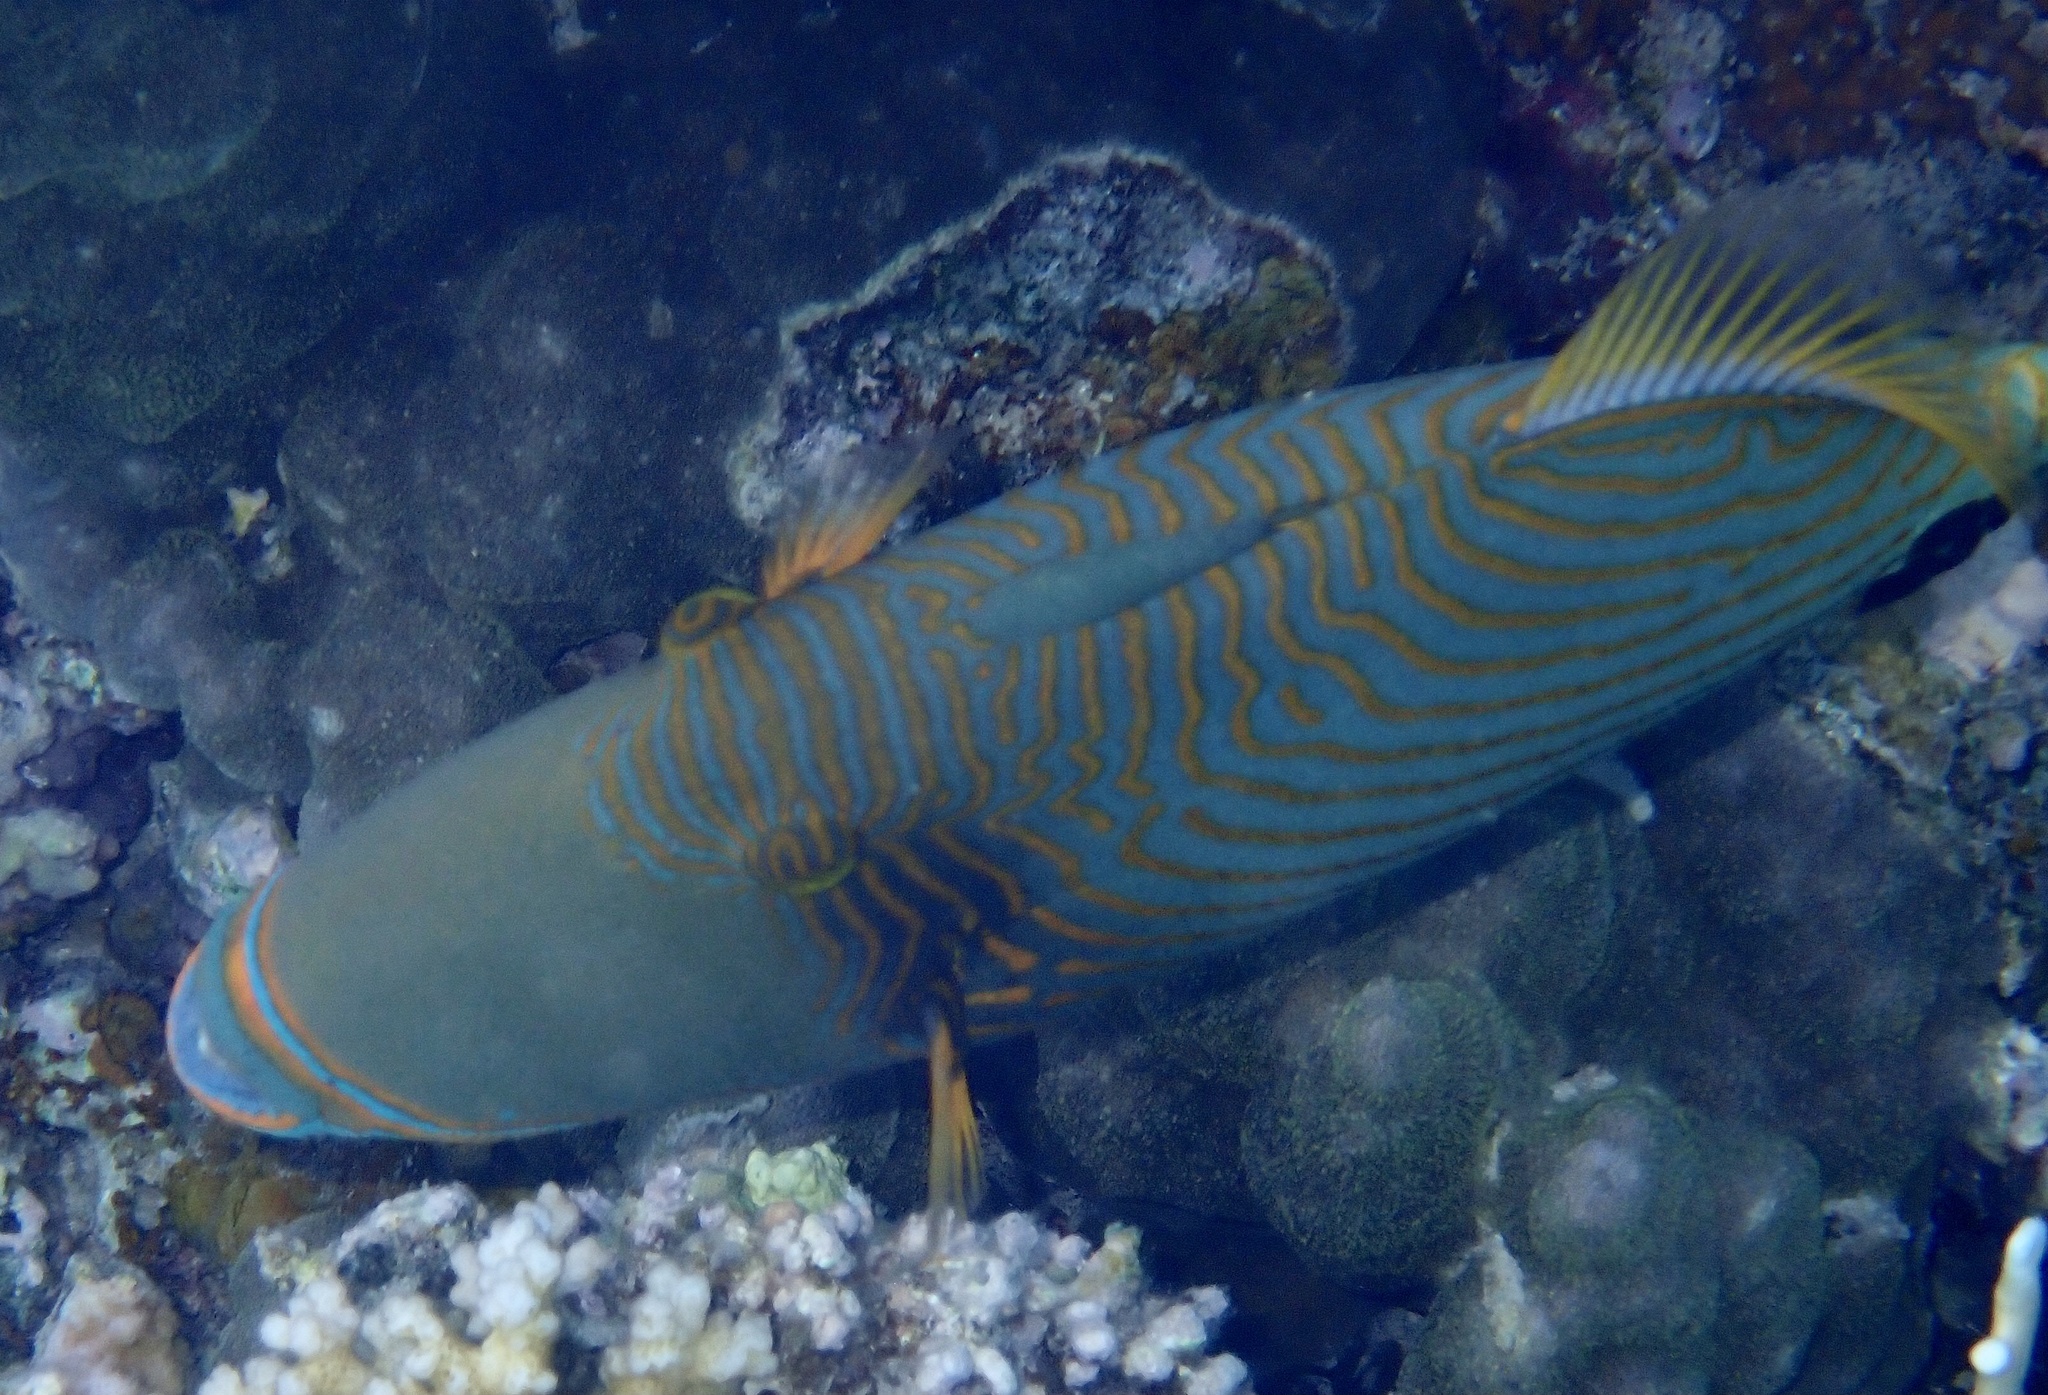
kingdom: Animalia
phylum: Chordata
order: Tetraodontiformes
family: Balistidae
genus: Balistapus
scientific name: Balistapus undulatus
